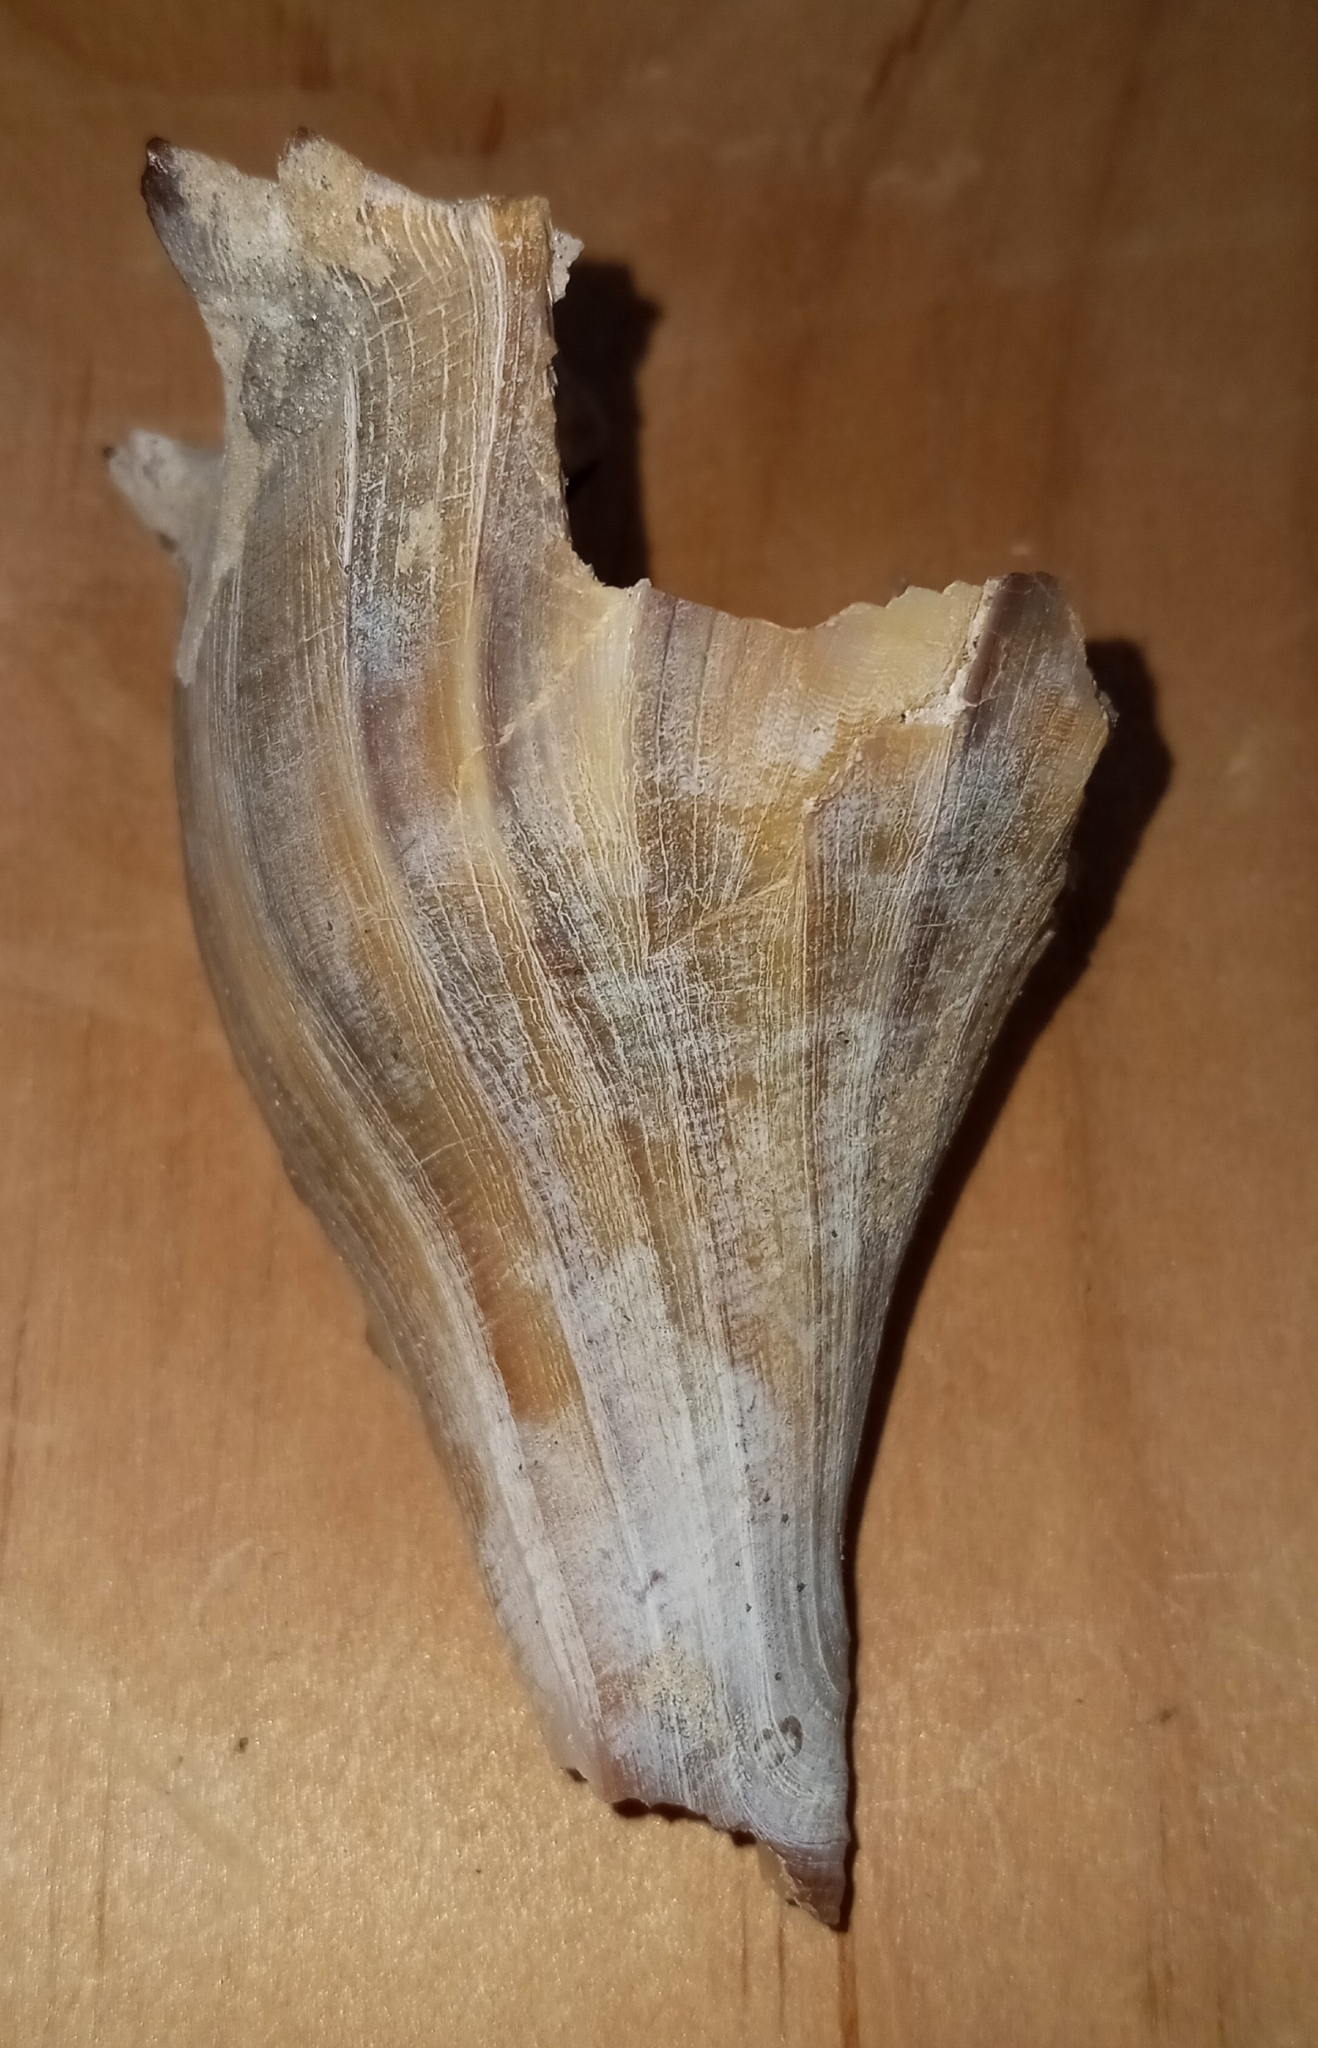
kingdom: Animalia
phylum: Mollusca
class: Gastropoda
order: Neogastropoda
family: Busyconidae
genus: Busycon
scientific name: Busycon carica
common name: Knobbed whelk
